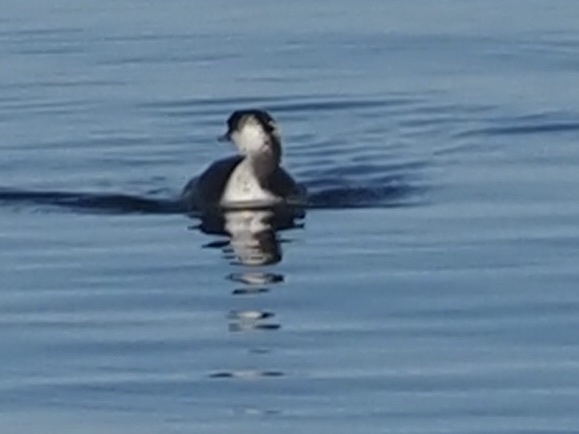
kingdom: Animalia
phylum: Chordata
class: Aves
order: Podicipediformes
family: Podicipedidae
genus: Podiceps
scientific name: Podiceps auritus
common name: Horned grebe
